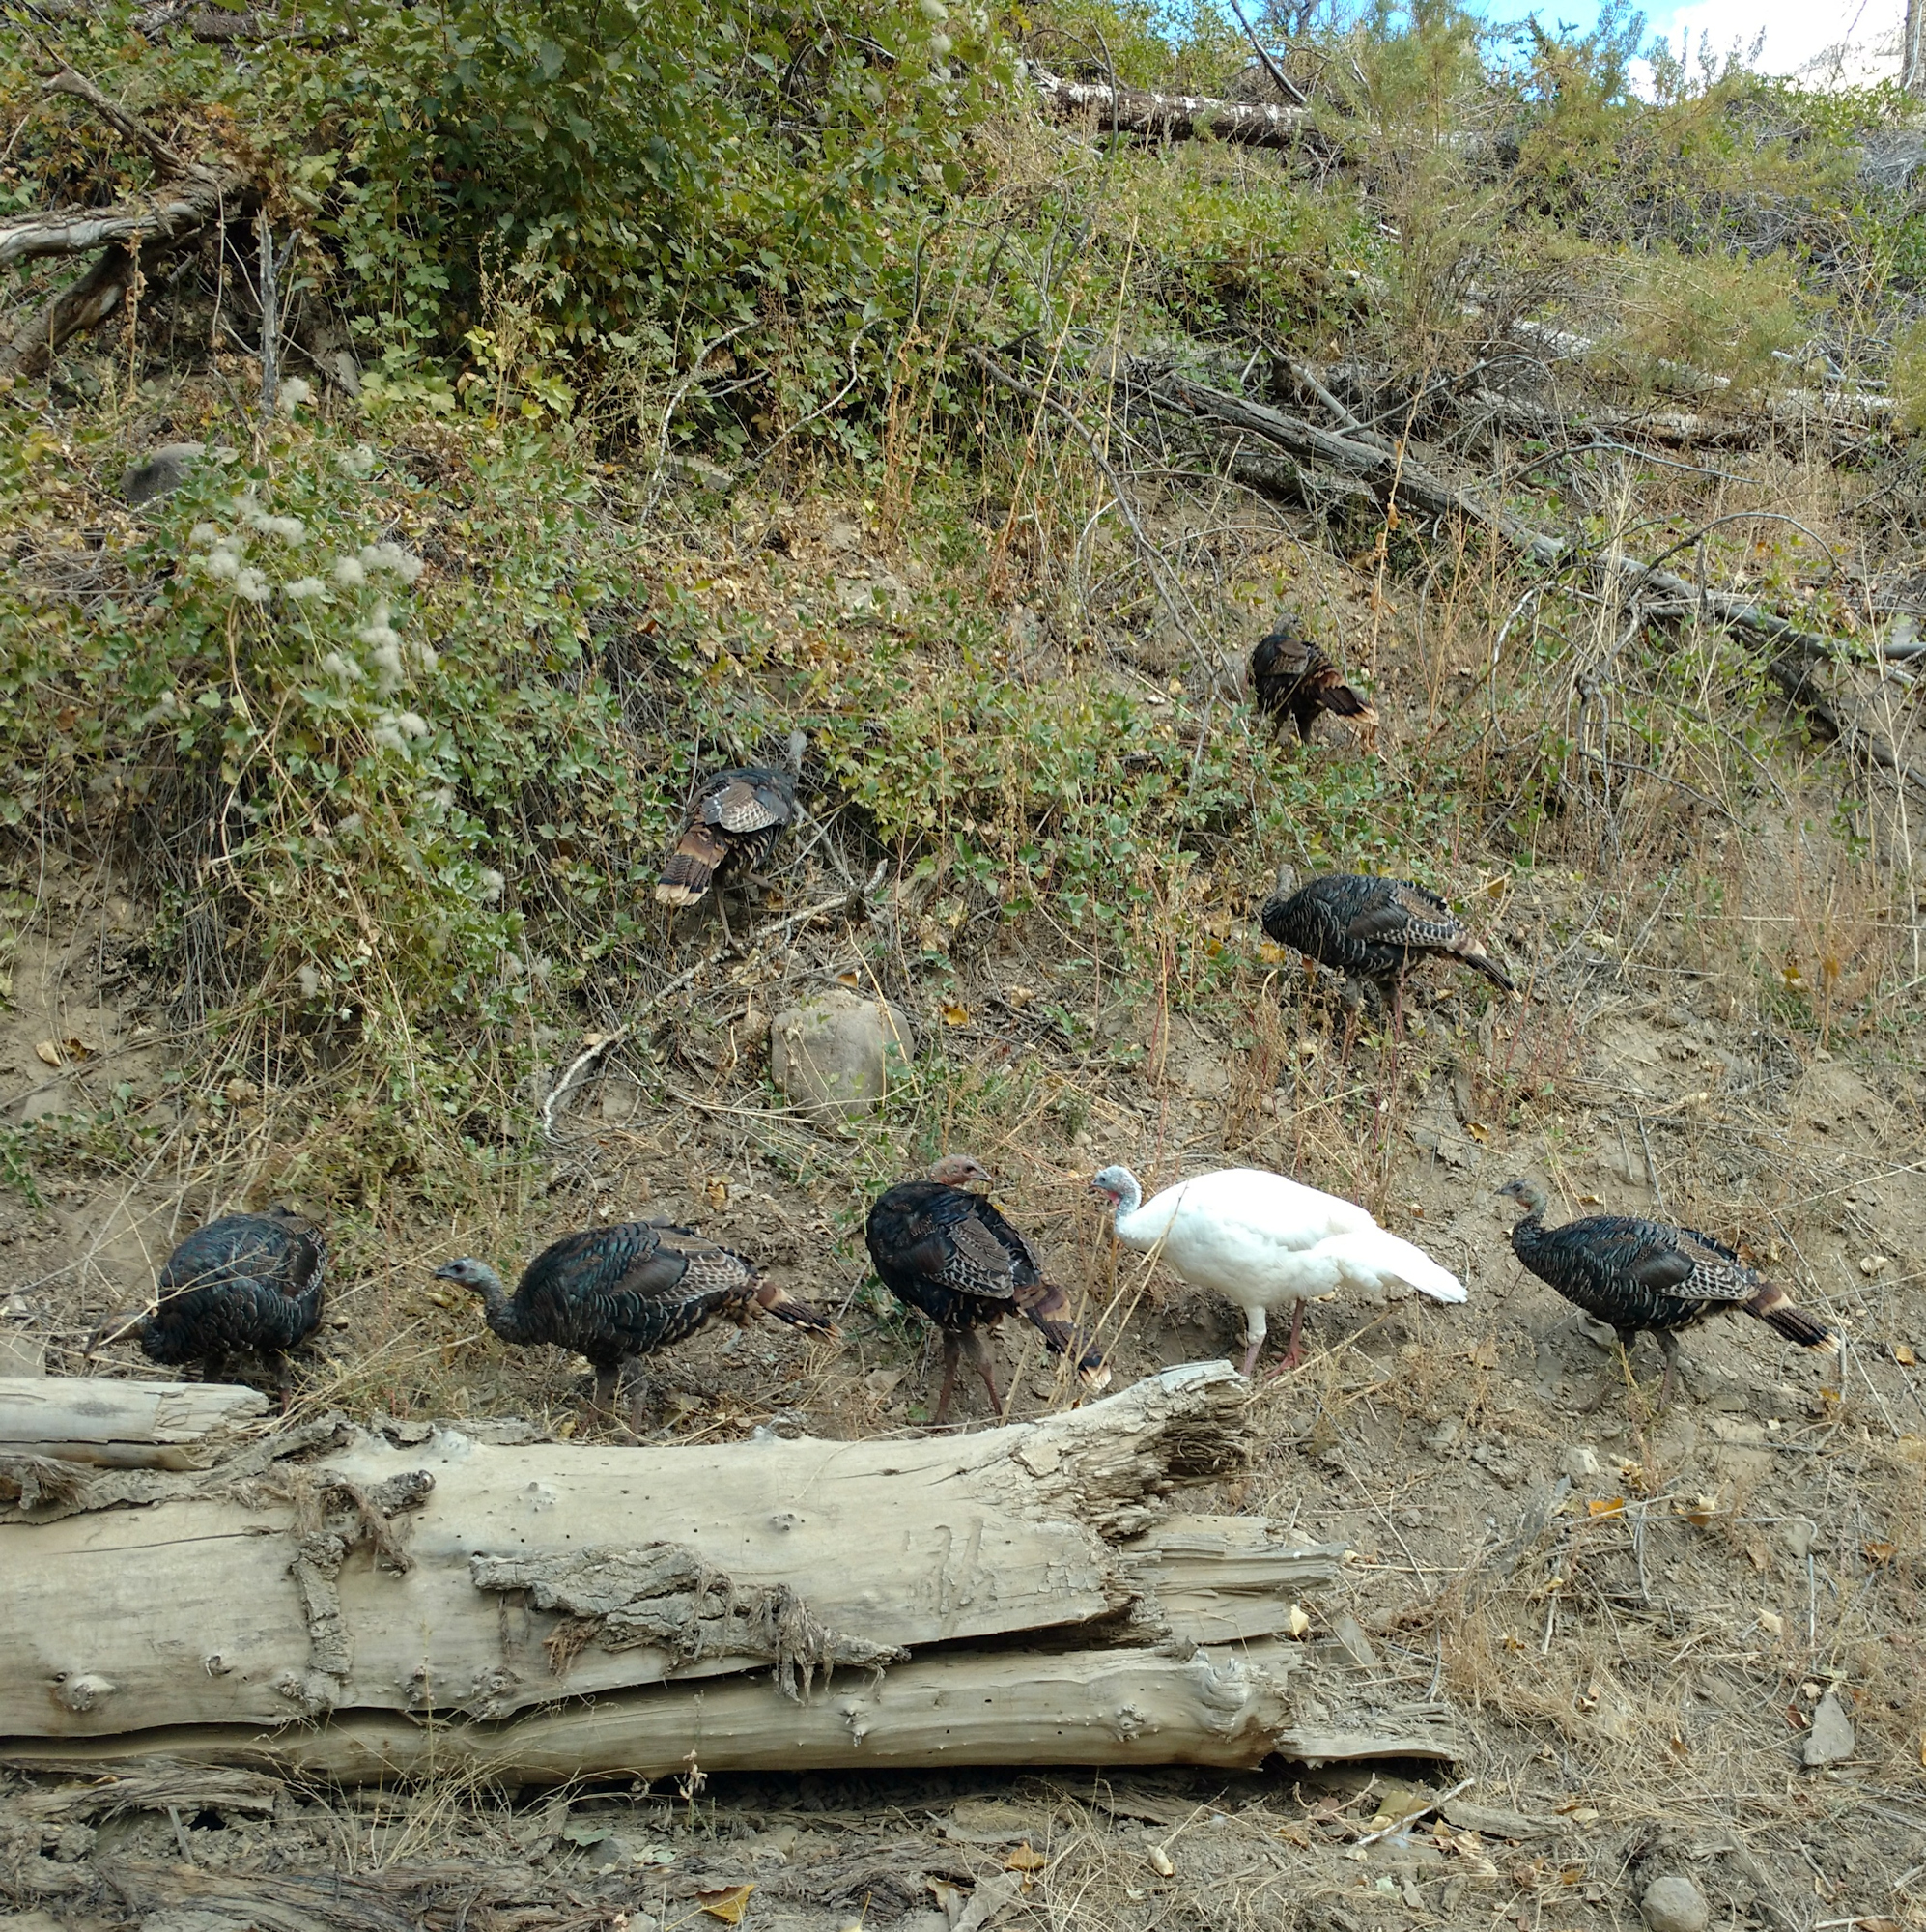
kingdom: Animalia
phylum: Chordata
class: Aves
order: Galliformes
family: Phasianidae
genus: Meleagris
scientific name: Meleagris gallopavo
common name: Wild turkey
